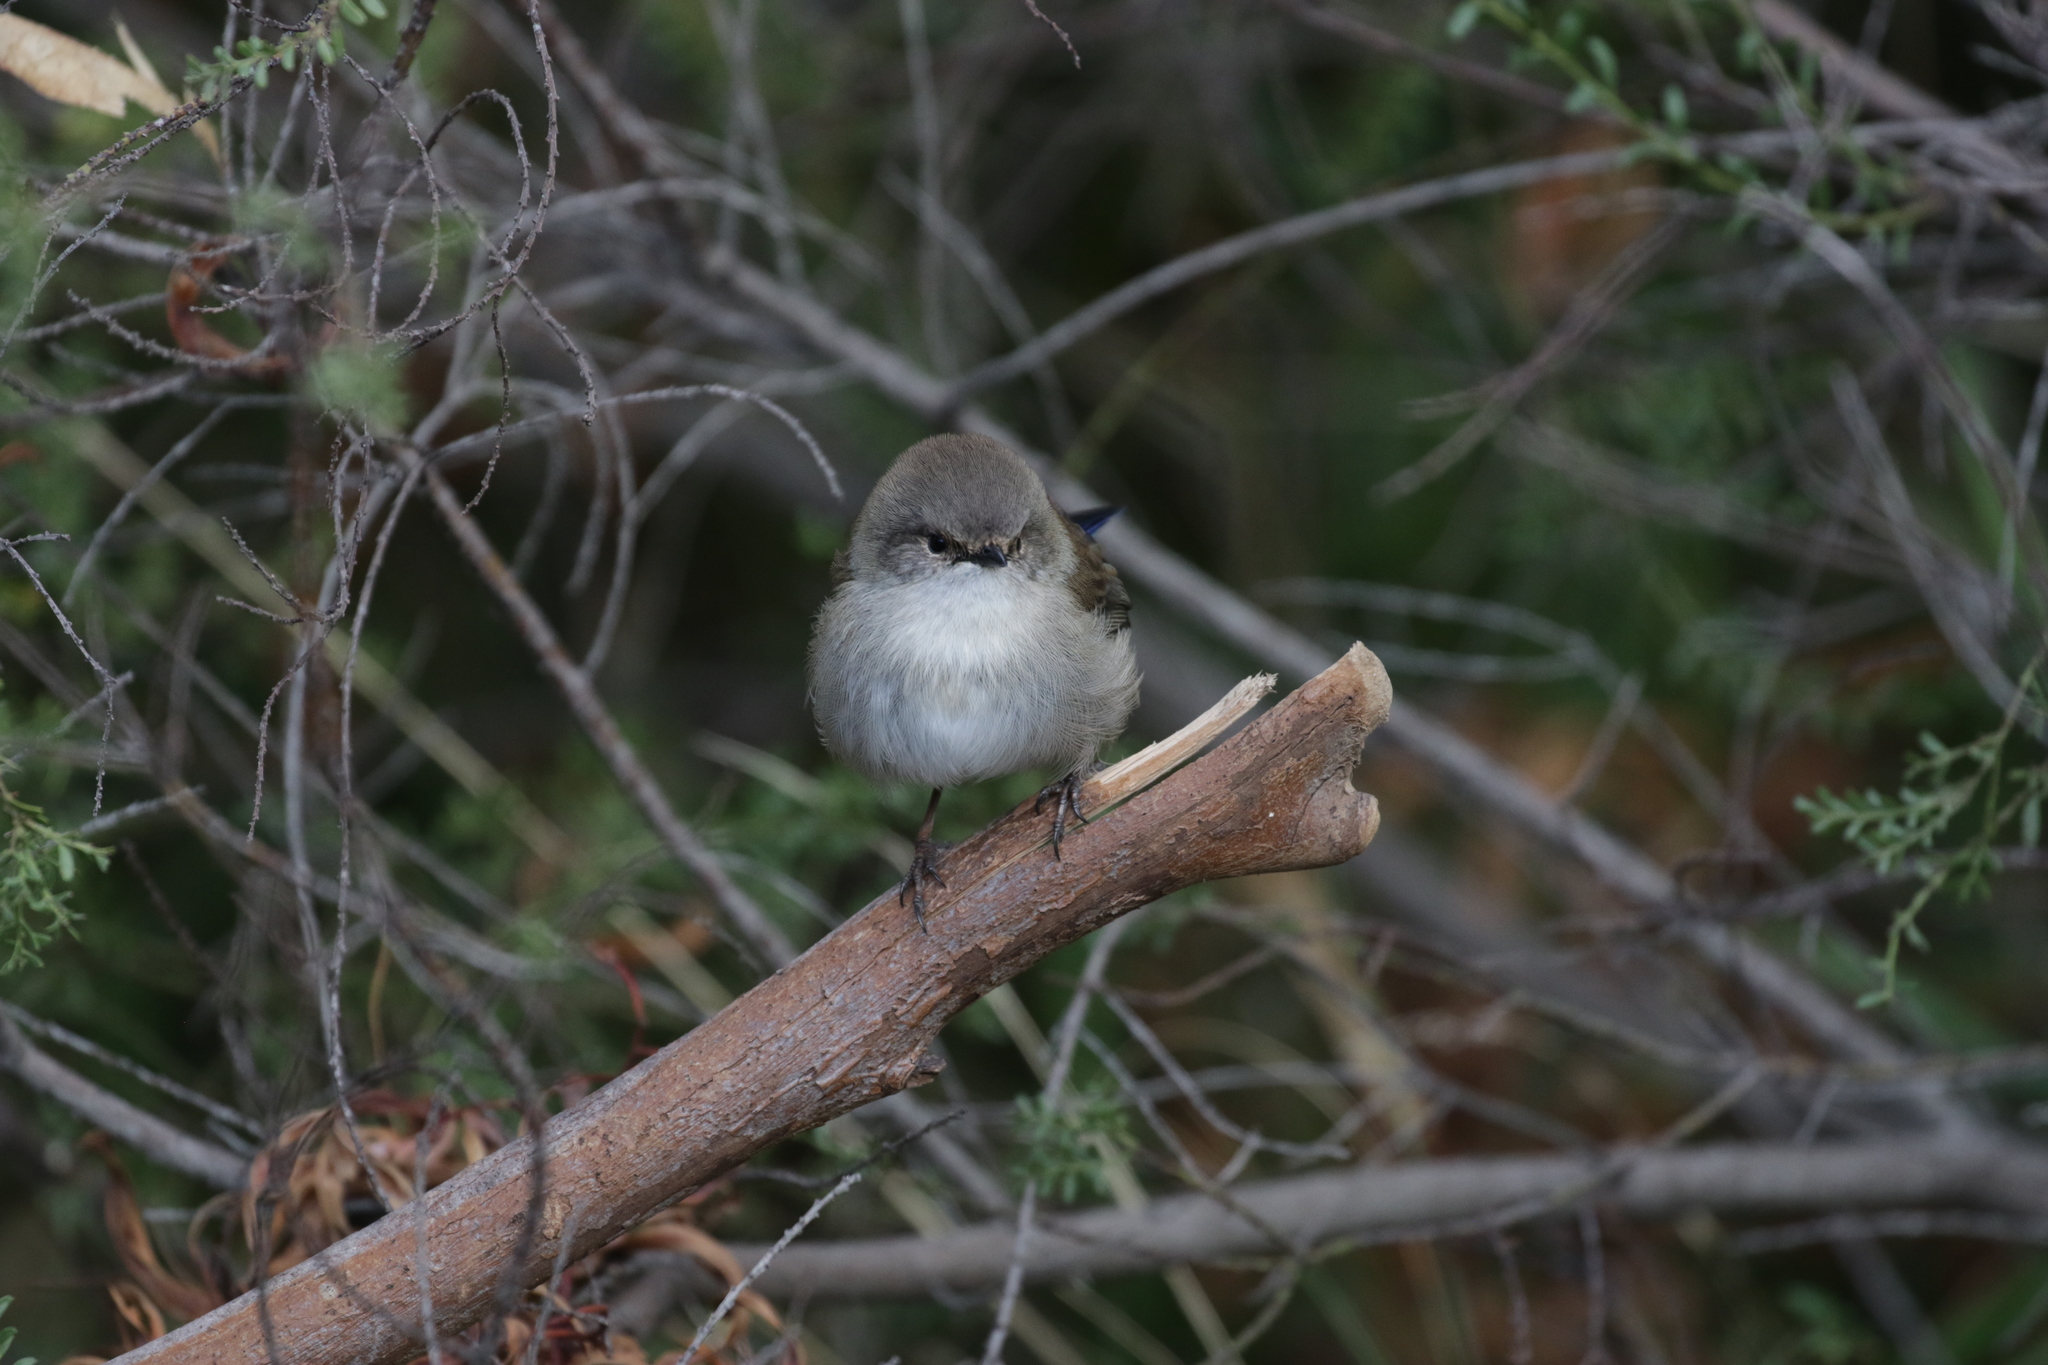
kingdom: Animalia
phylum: Chordata
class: Aves
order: Passeriformes
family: Maluridae
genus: Malurus
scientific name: Malurus cyaneus
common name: Superb fairywren
